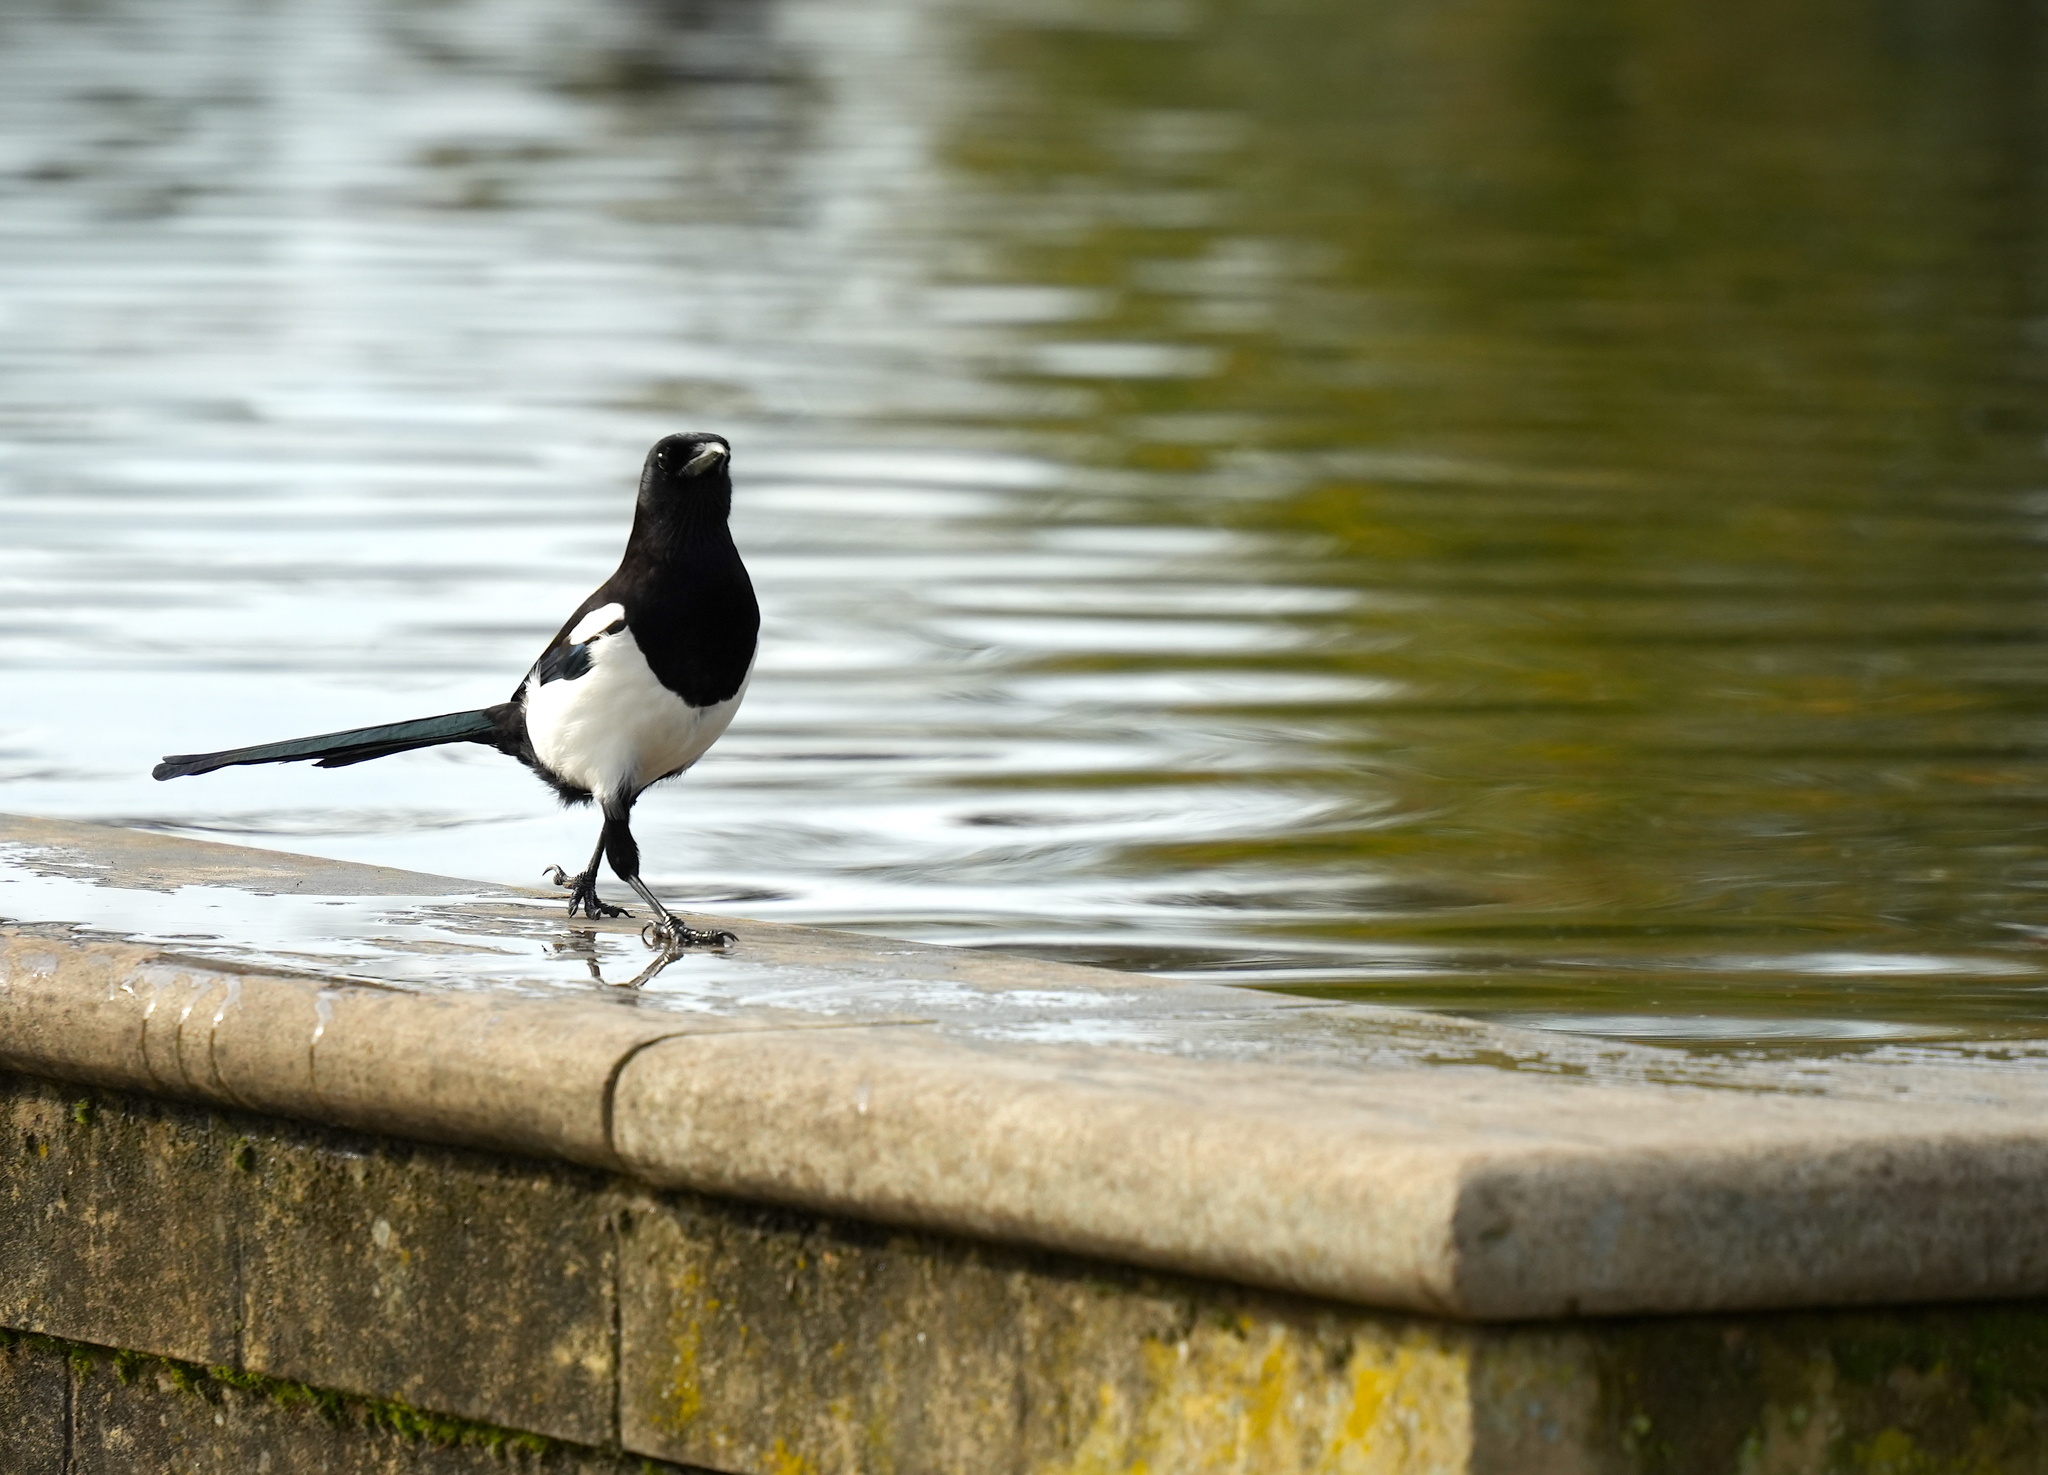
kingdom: Animalia
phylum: Chordata
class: Aves
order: Passeriformes
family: Corvidae
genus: Pica
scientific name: Pica pica
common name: Eurasian magpie
